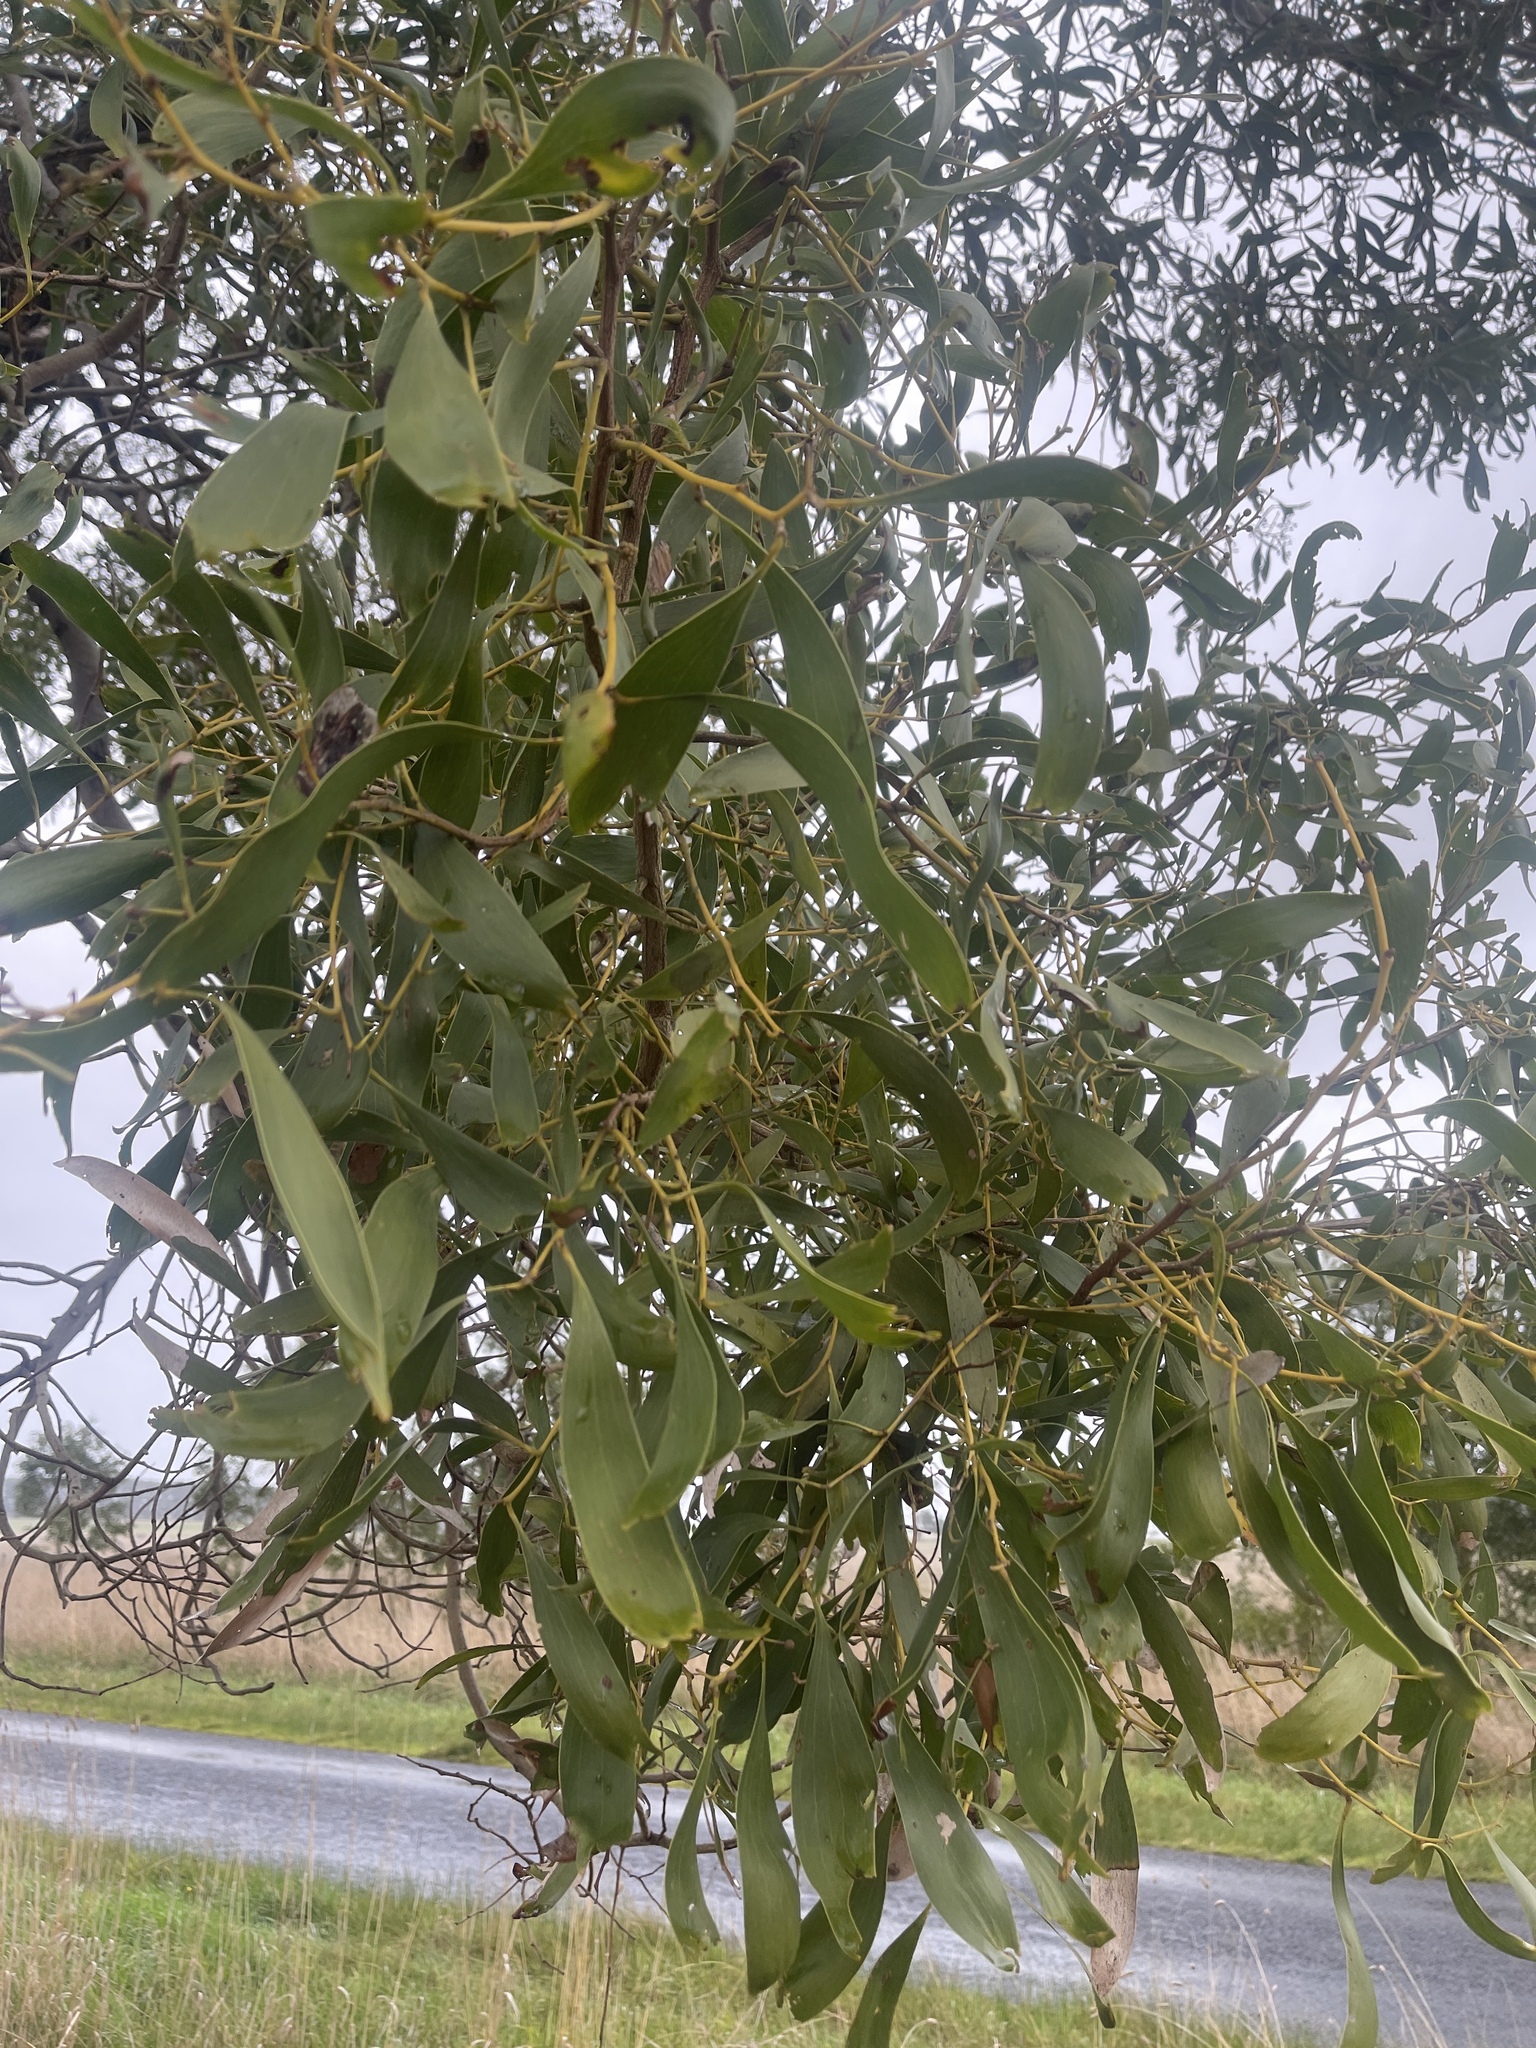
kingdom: Plantae
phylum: Tracheophyta
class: Magnoliopsida
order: Fabales
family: Fabaceae
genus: Acacia
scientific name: Acacia melanoxylon
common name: Blackwood
